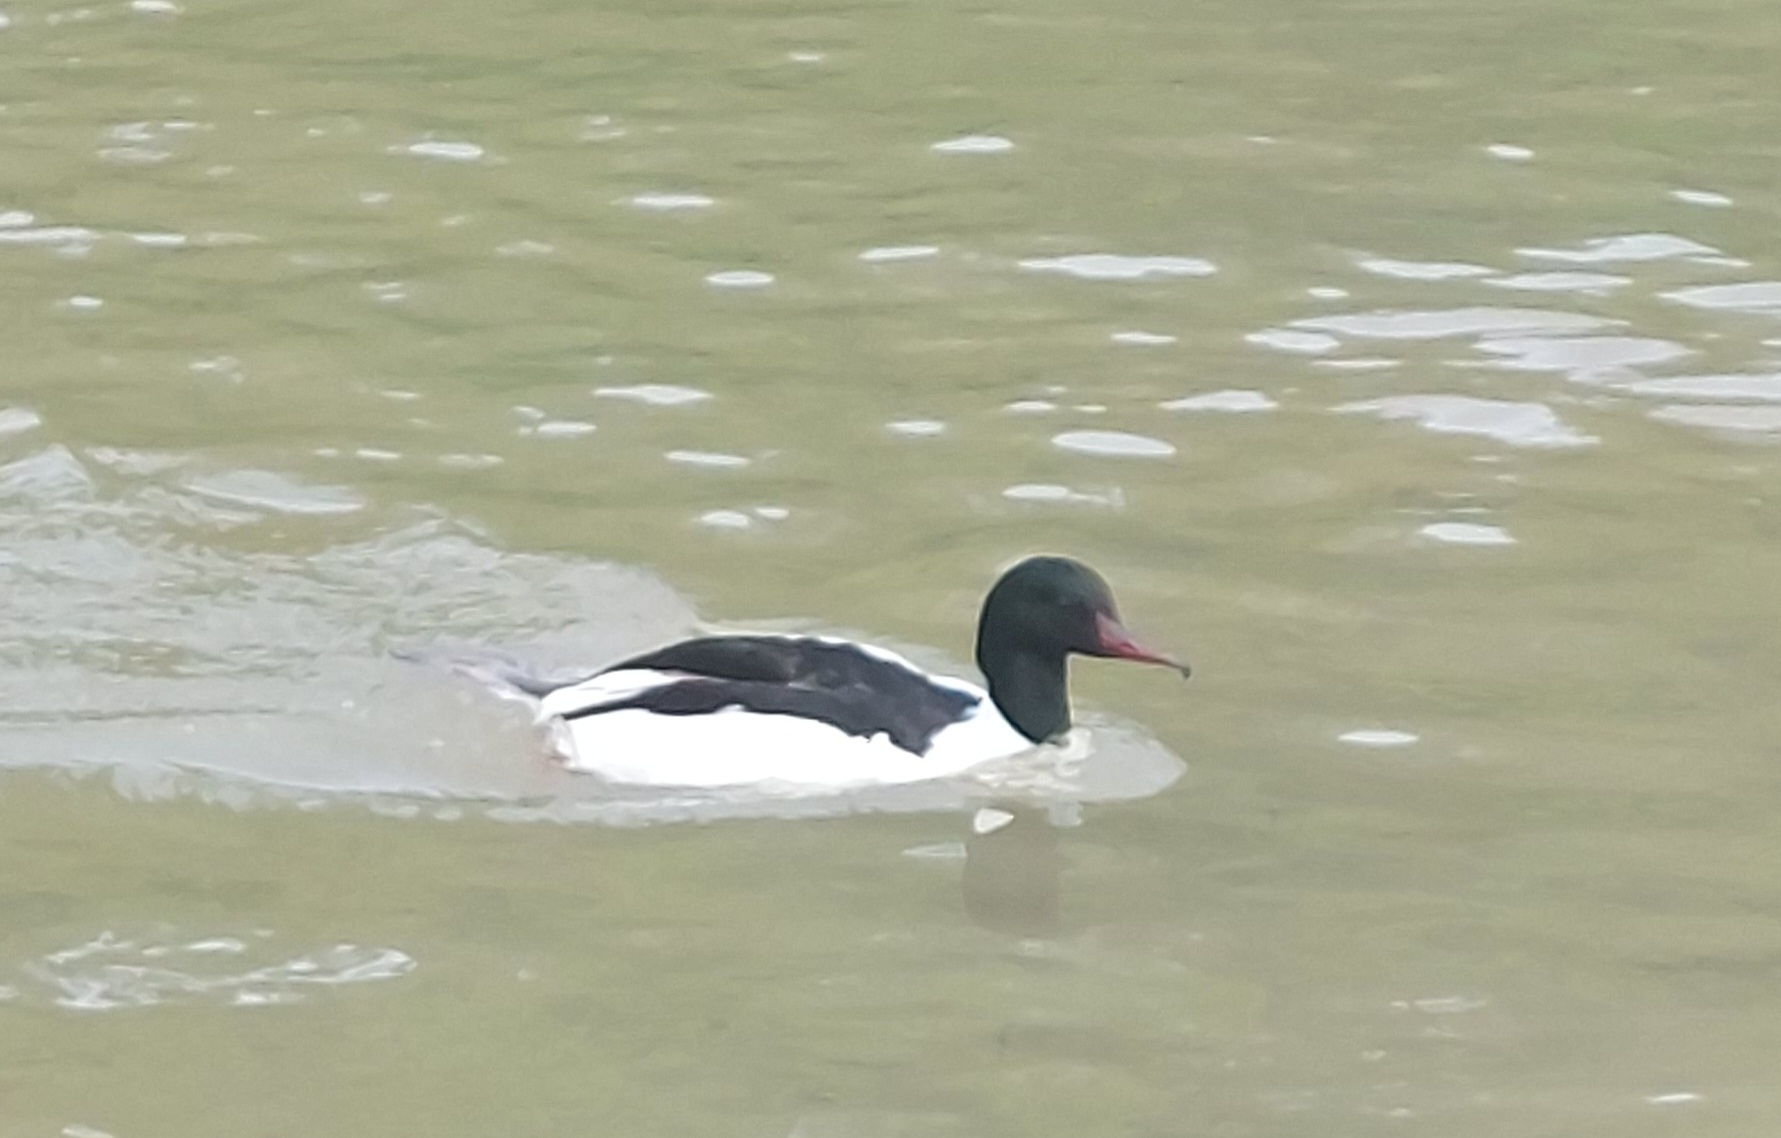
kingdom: Animalia
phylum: Chordata
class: Aves
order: Anseriformes
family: Anatidae
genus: Mergus
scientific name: Mergus merganser
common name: Common merganser
